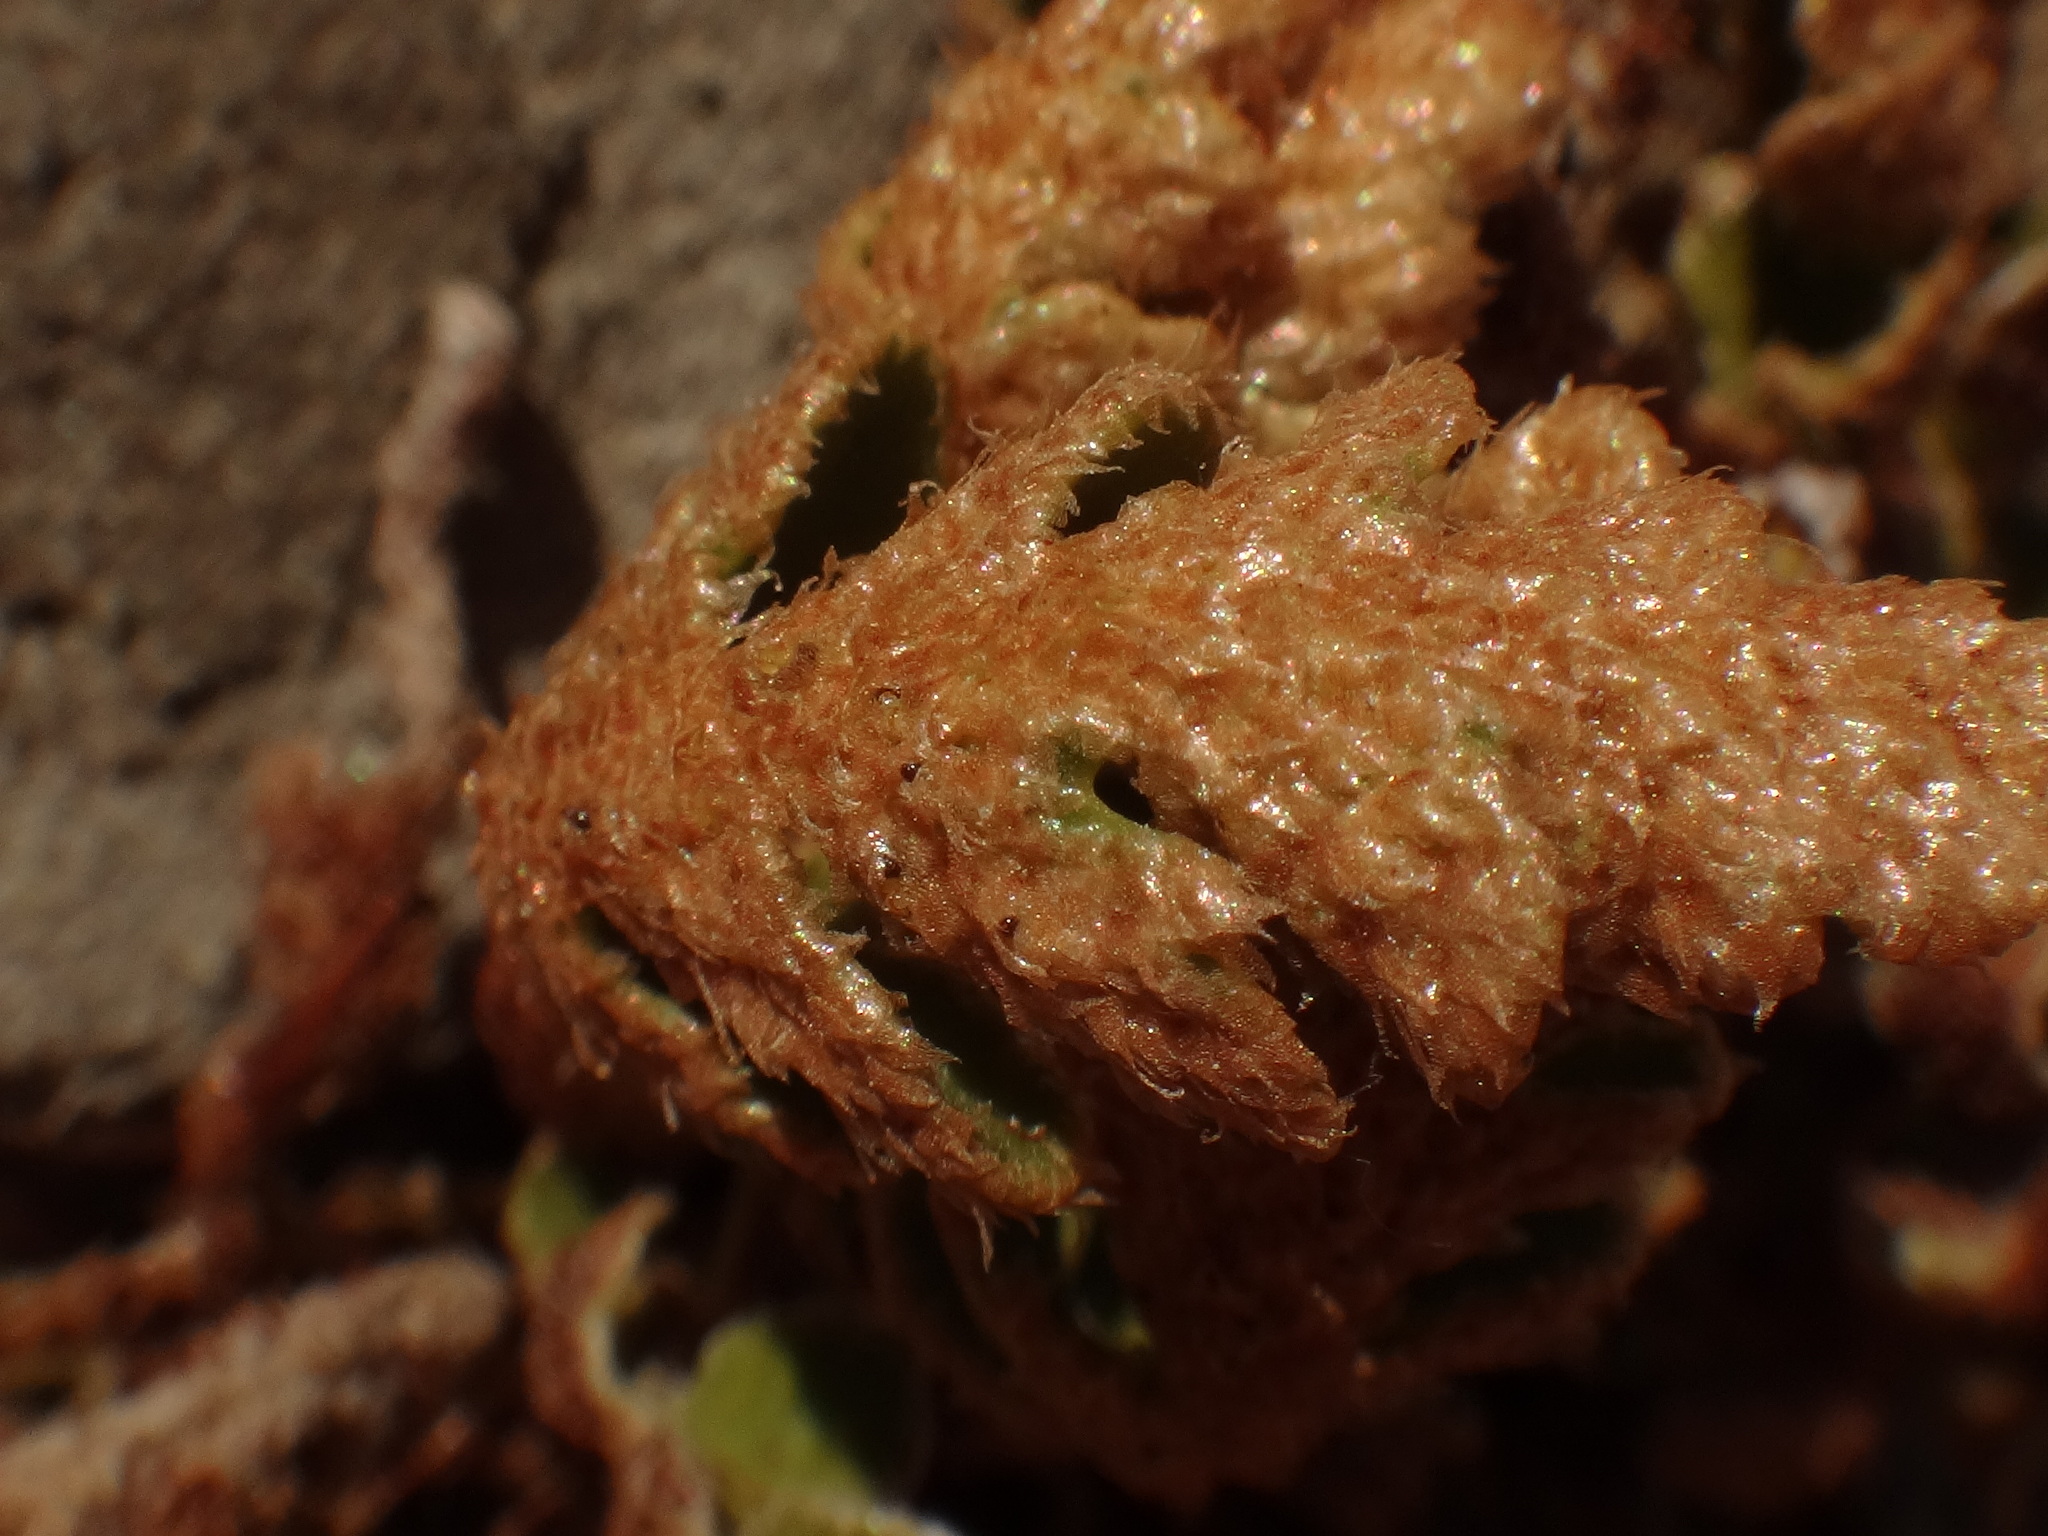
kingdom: Plantae
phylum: Tracheophyta
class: Polypodiopsida
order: Polypodiales
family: Aspleniaceae
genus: Asplenium
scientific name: Asplenium ceterach
